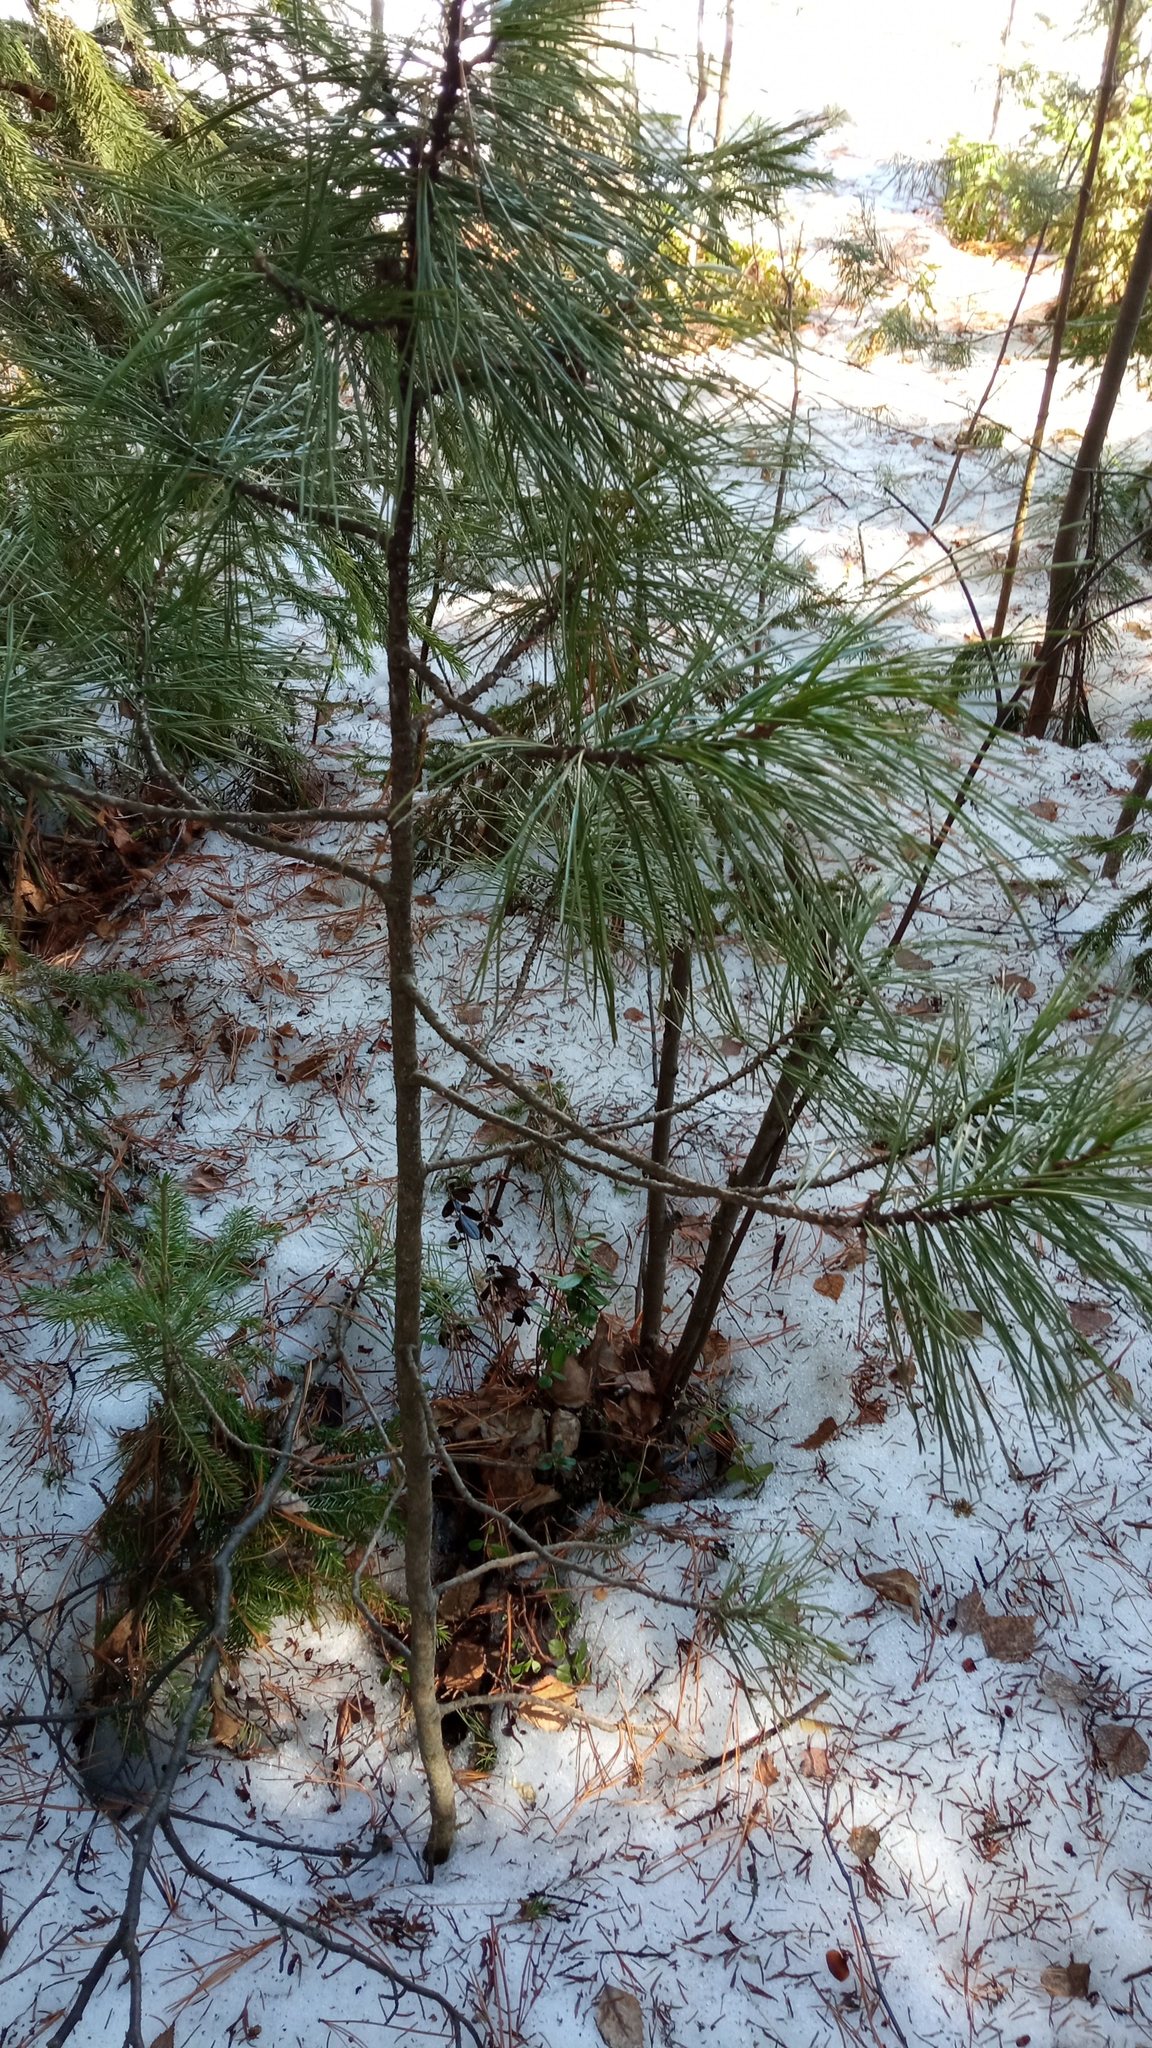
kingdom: Plantae
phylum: Tracheophyta
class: Pinopsida
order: Pinales
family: Pinaceae
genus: Pinus
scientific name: Pinus sibirica
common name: Siberian pine
